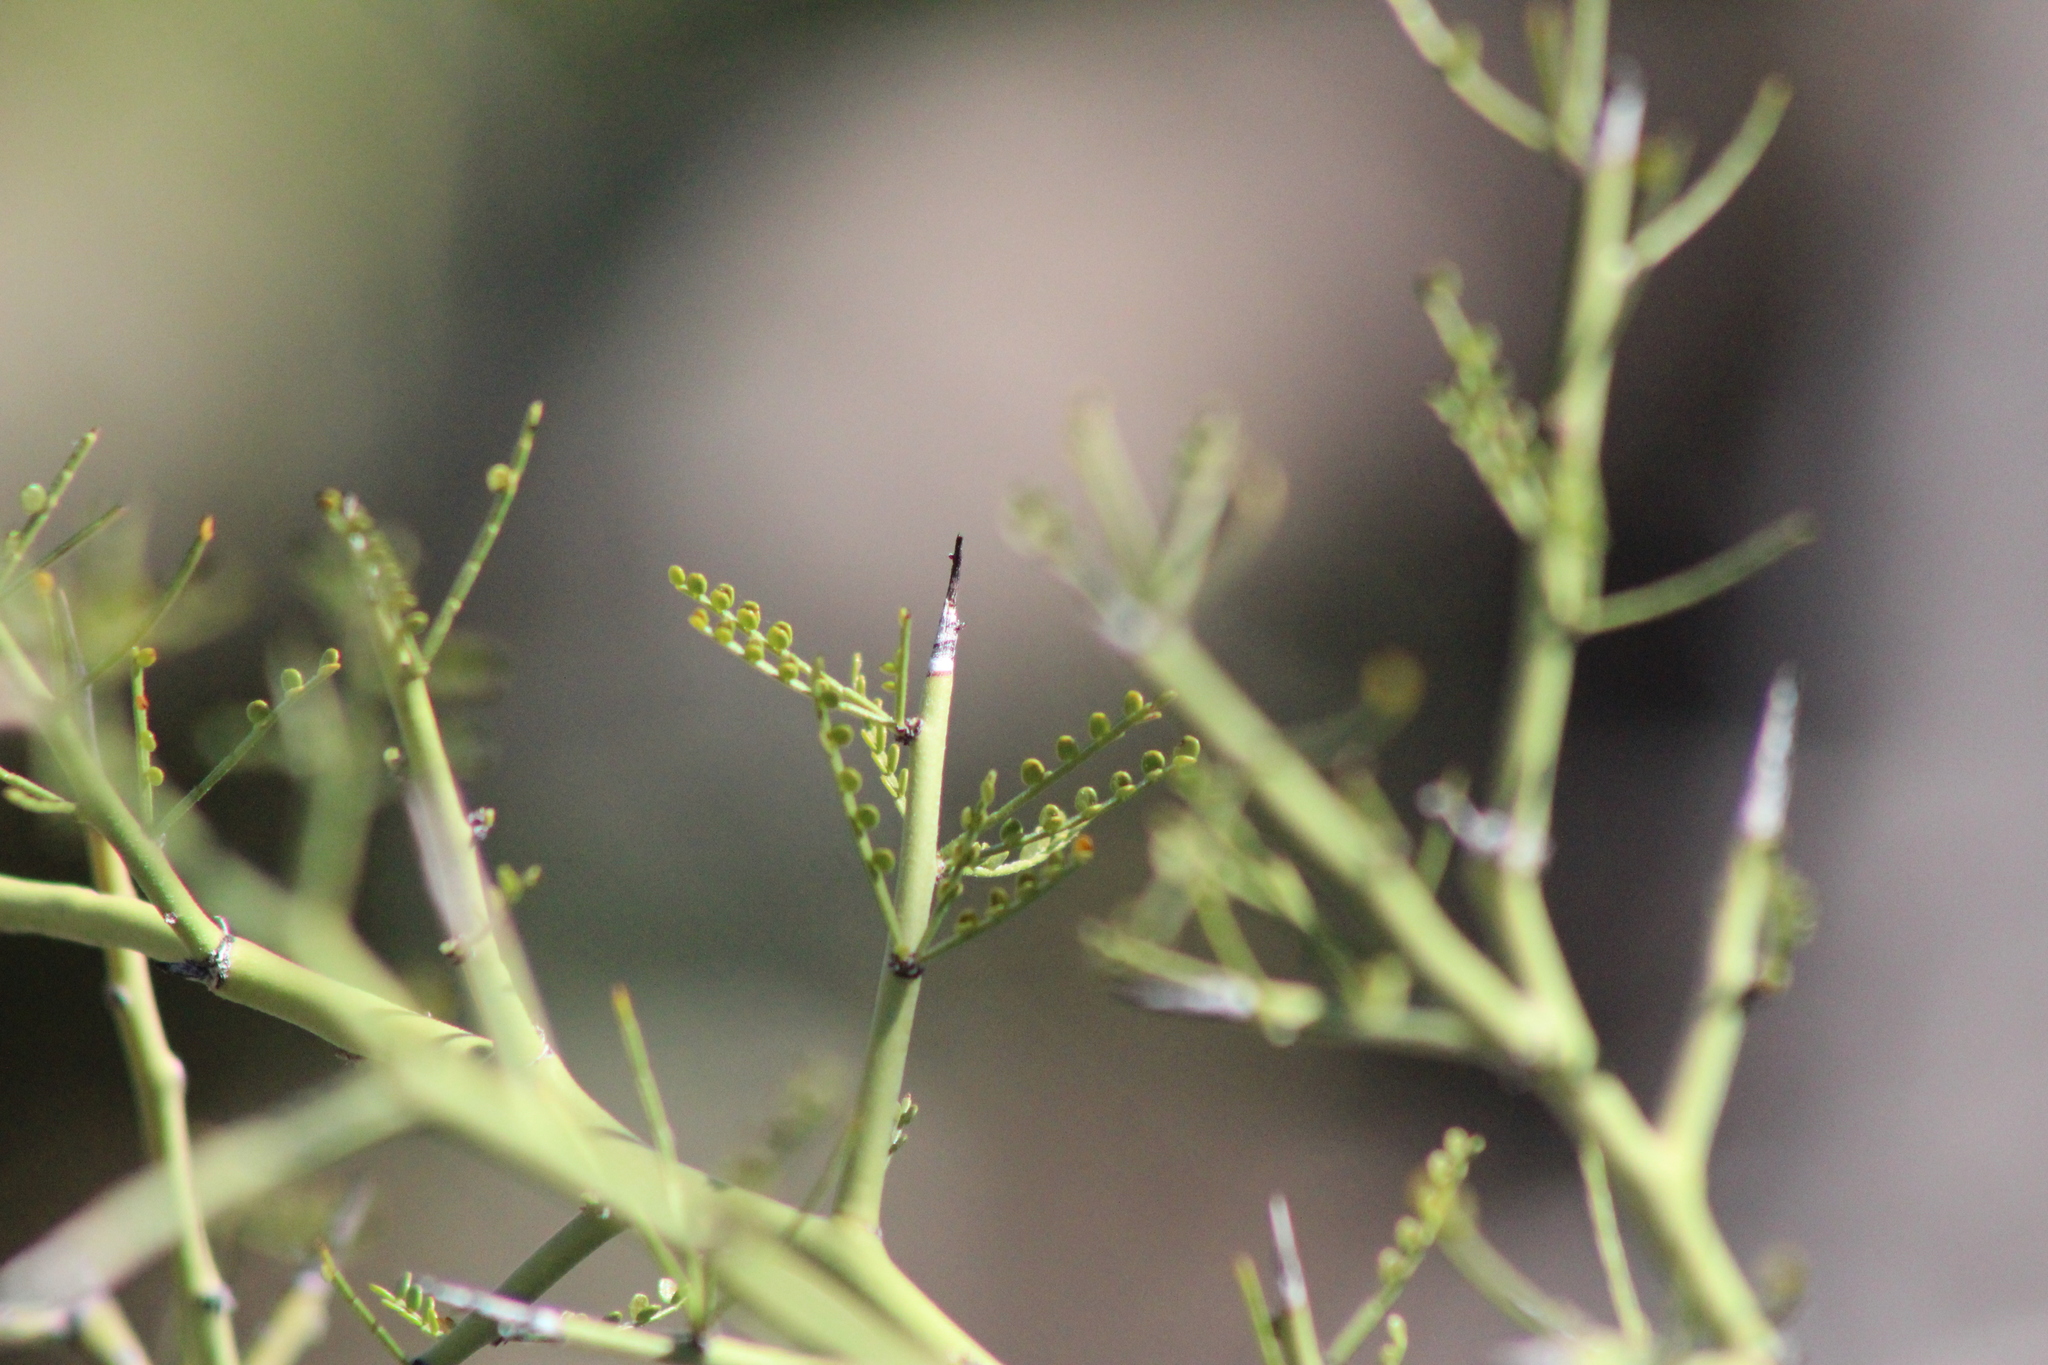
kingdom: Plantae
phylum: Tracheophyta
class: Magnoliopsida
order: Fabales
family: Fabaceae
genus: Parkinsonia
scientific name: Parkinsonia microphylla
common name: Yellow paloverde
